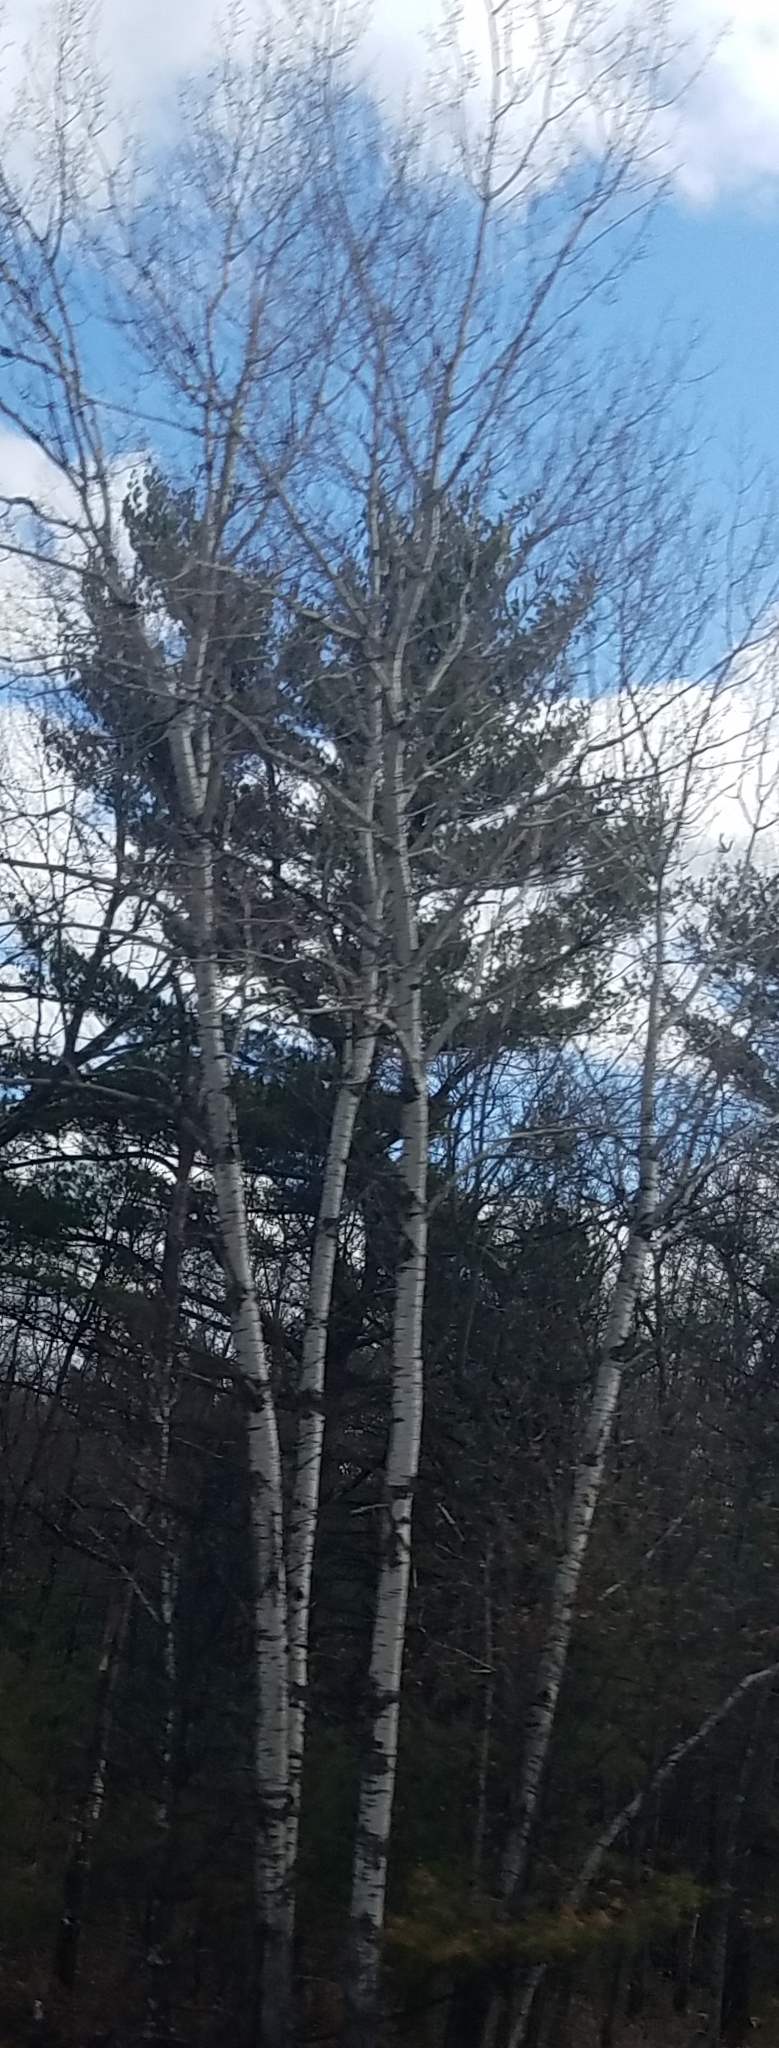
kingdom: Plantae
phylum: Tracheophyta
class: Magnoliopsida
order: Malpighiales
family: Salicaceae
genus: Populus
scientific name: Populus tremuloides
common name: Quaking aspen
